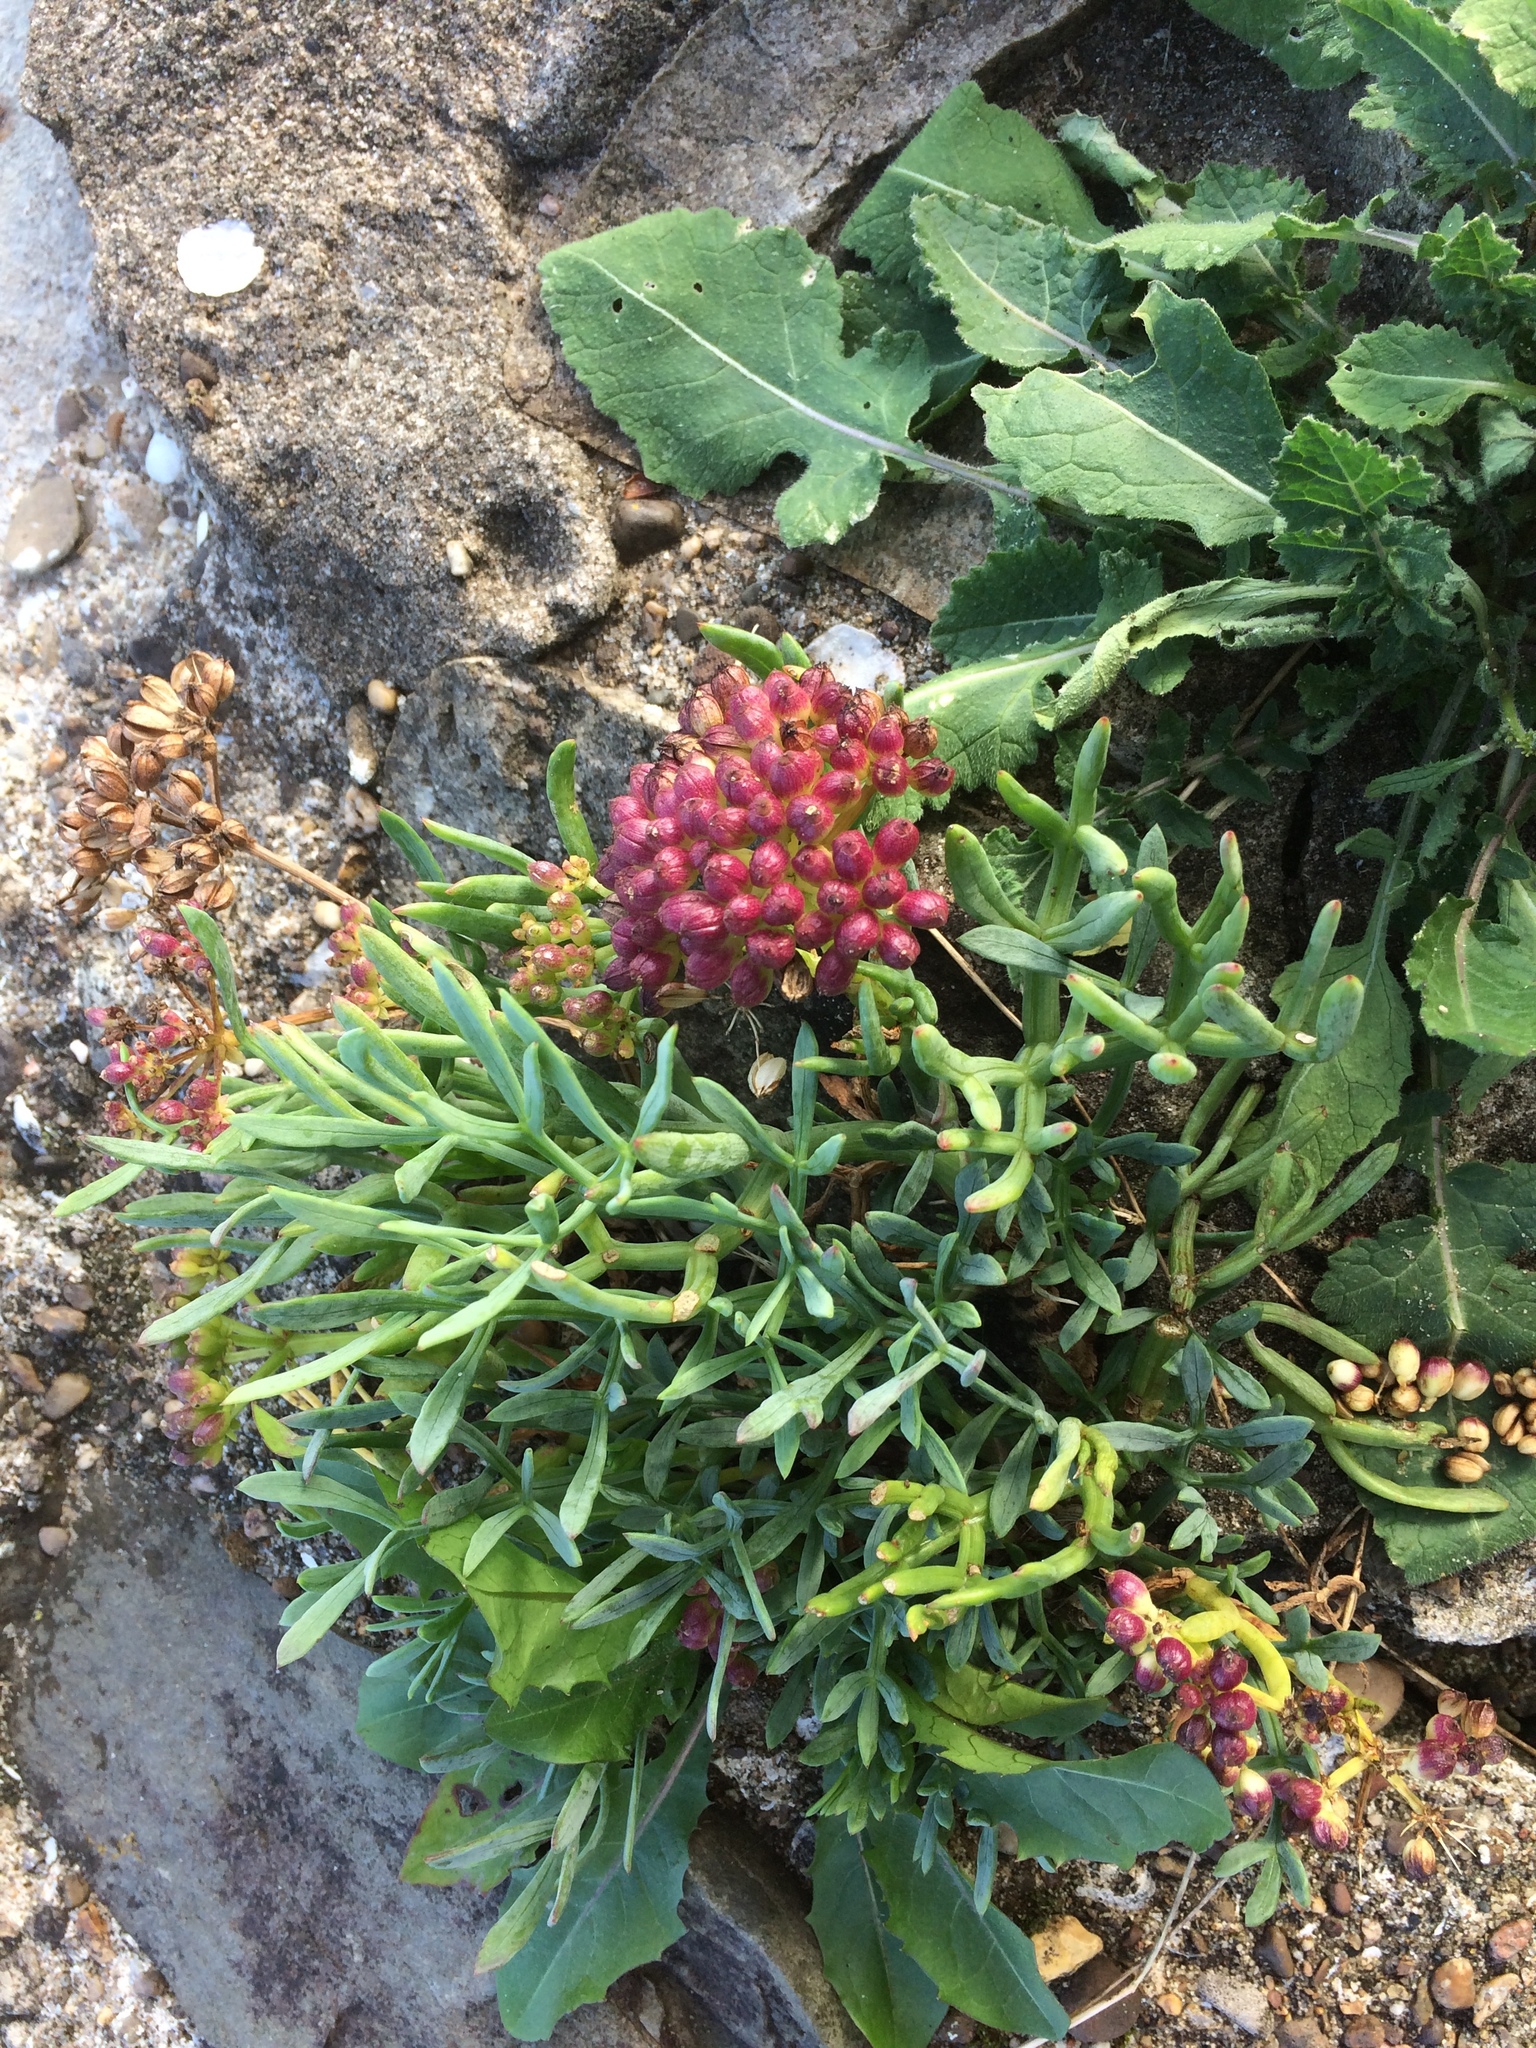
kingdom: Plantae
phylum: Tracheophyta
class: Magnoliopsida
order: Apiales
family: Apiaceae
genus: Crithmum
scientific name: Crithmum maritimum
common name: Rock samphire
